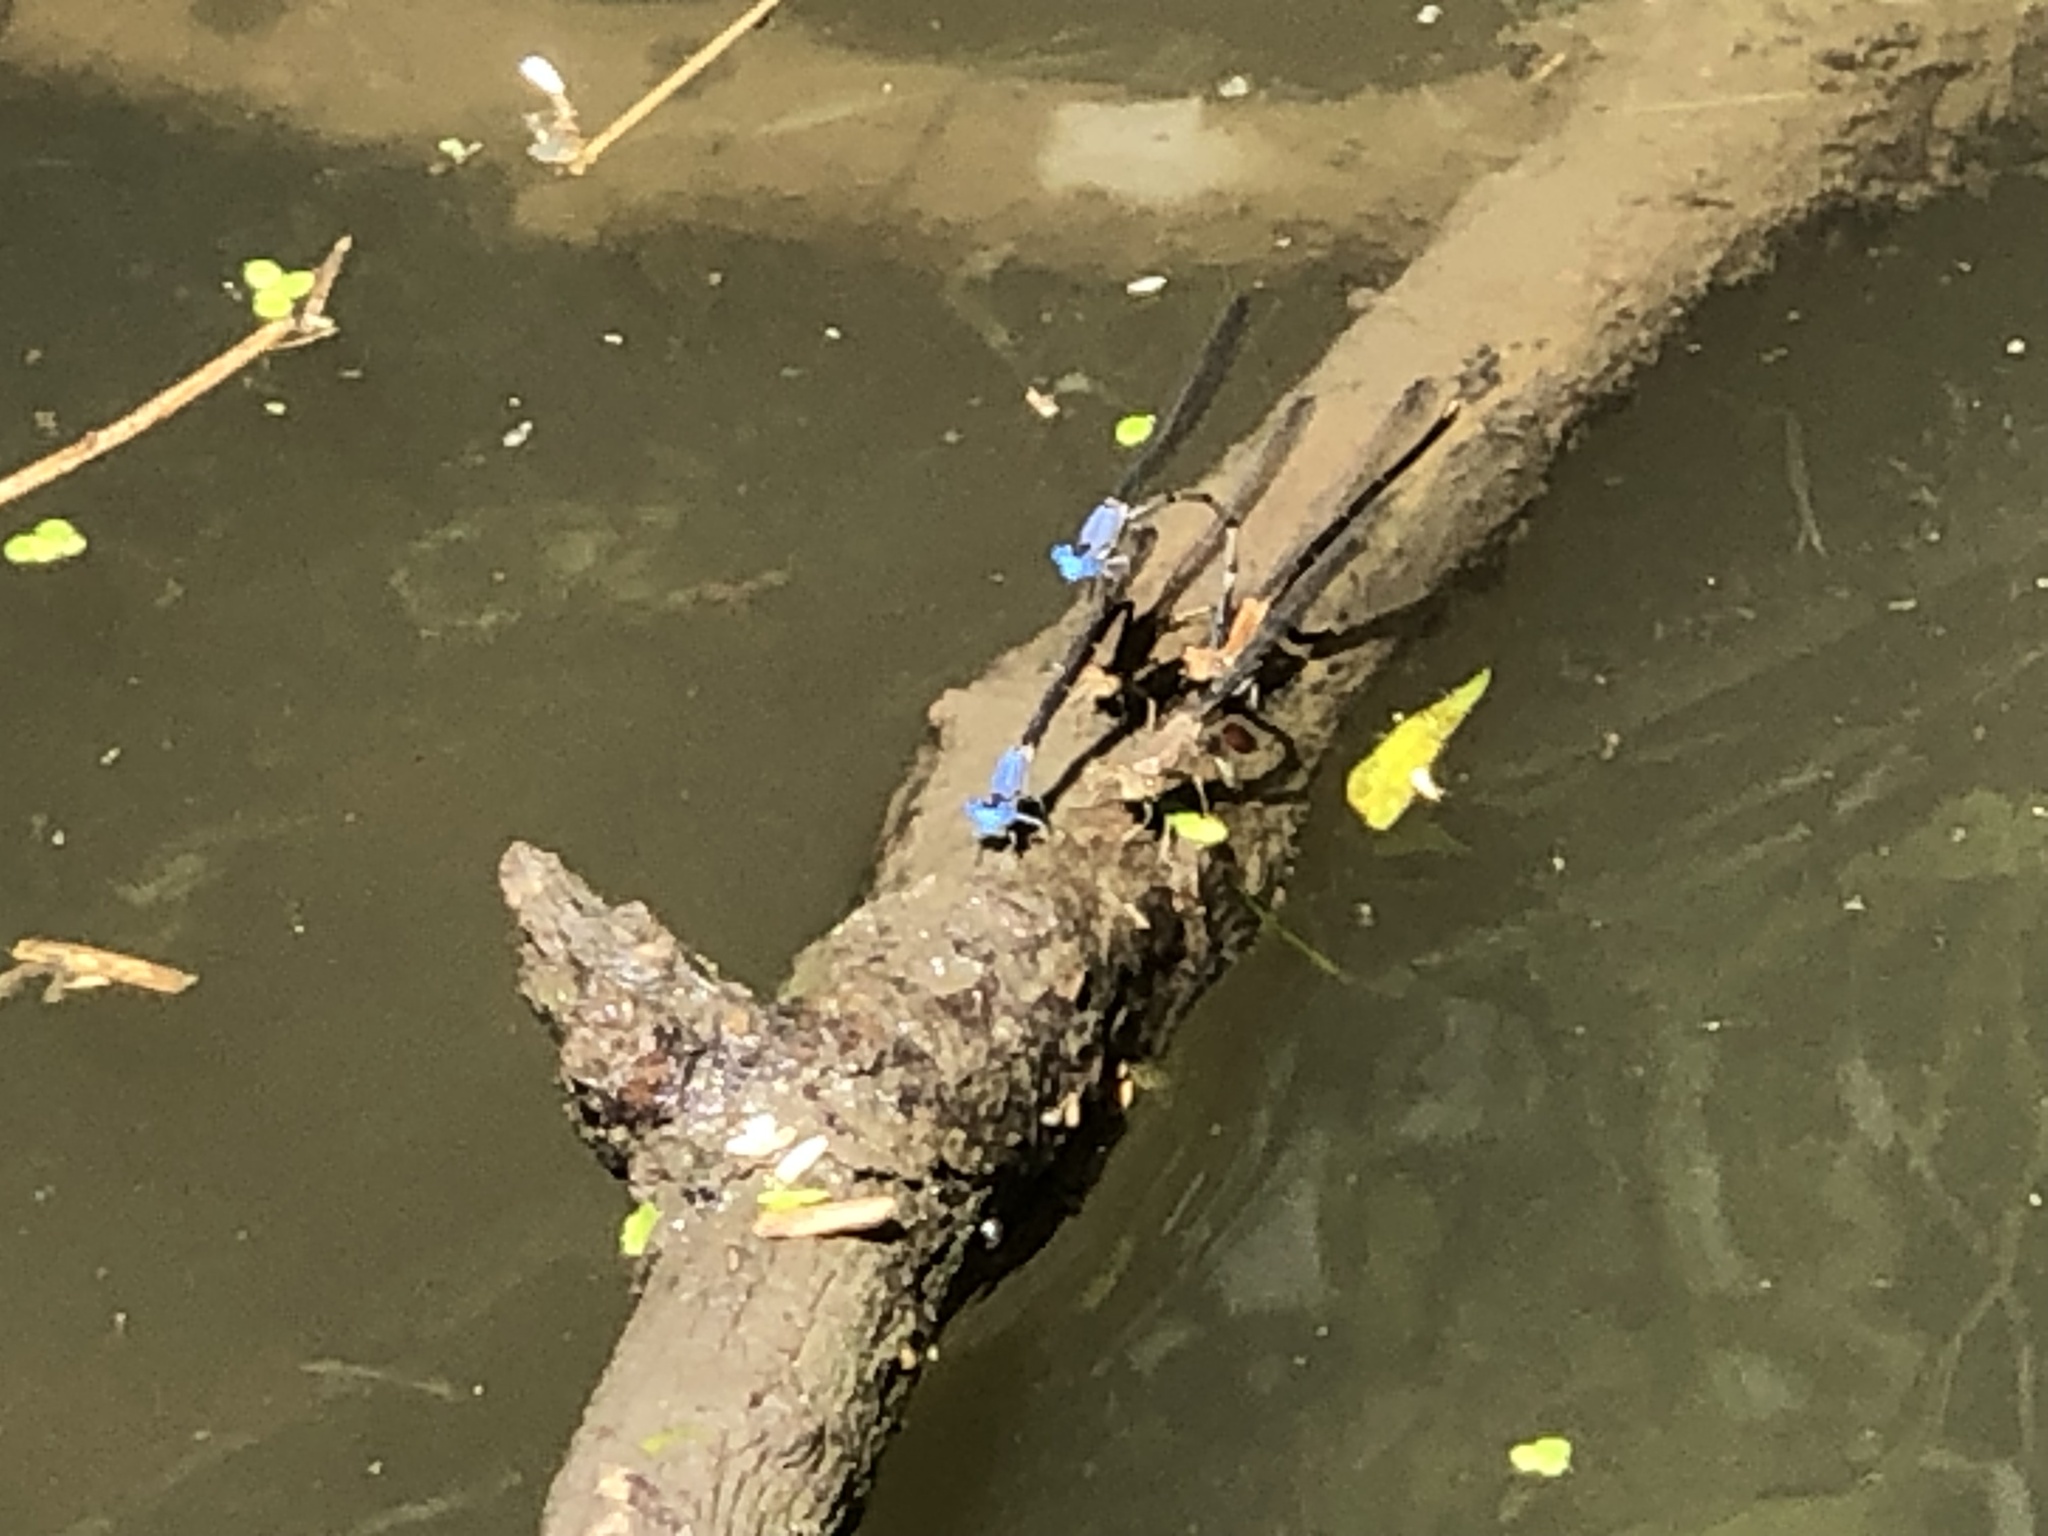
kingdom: Animalia
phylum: Arthropoda
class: Insecta
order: Odonata
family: Coenagrionidae
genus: Argia
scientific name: Argia apicalis
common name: Blue-fronted dancer
